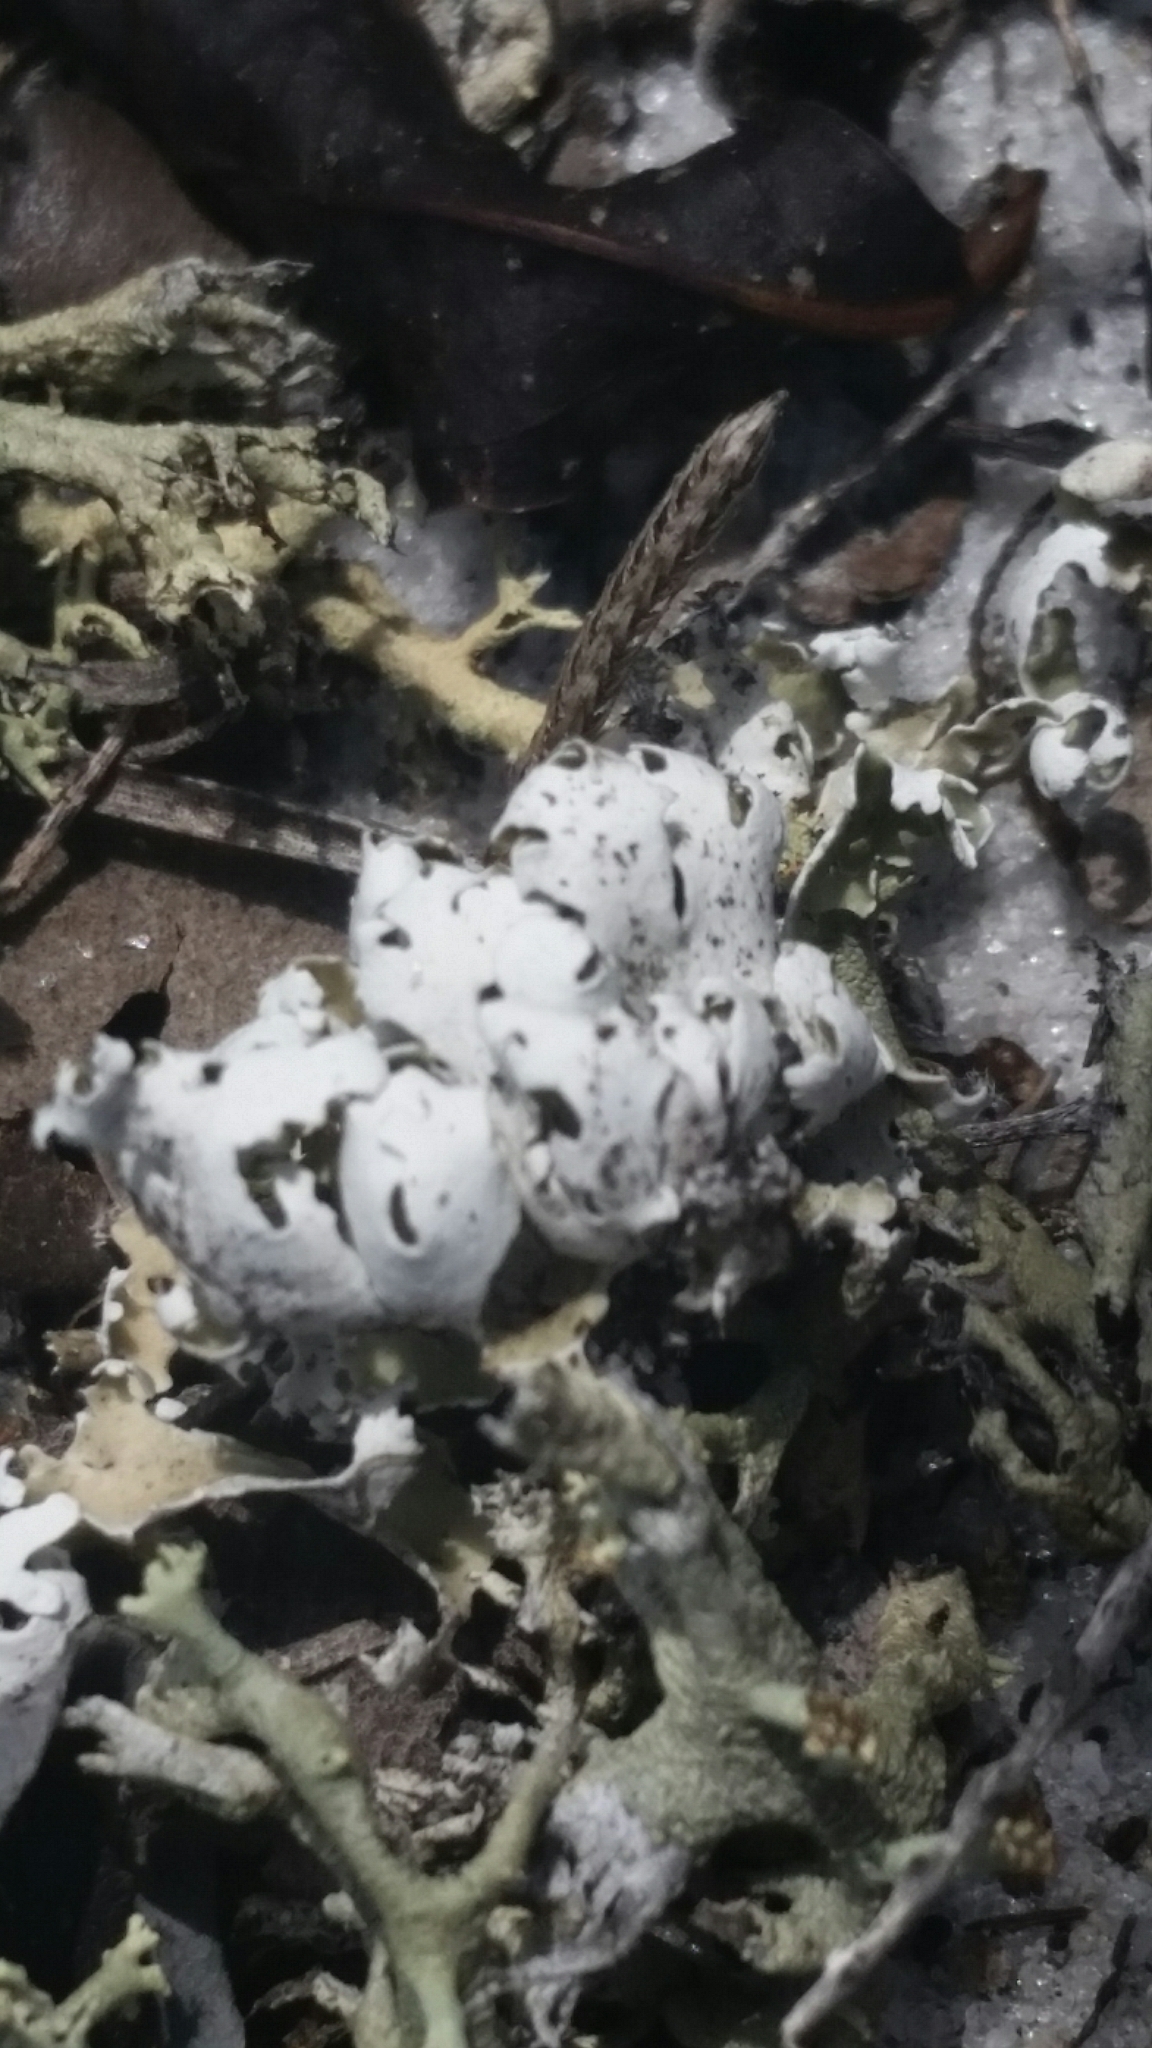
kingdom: Fungi
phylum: Ascomycota
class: Lecanoromycetes
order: Lecanorales
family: Cladoniaceae
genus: Cladonia
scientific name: Cladonia prostrata
